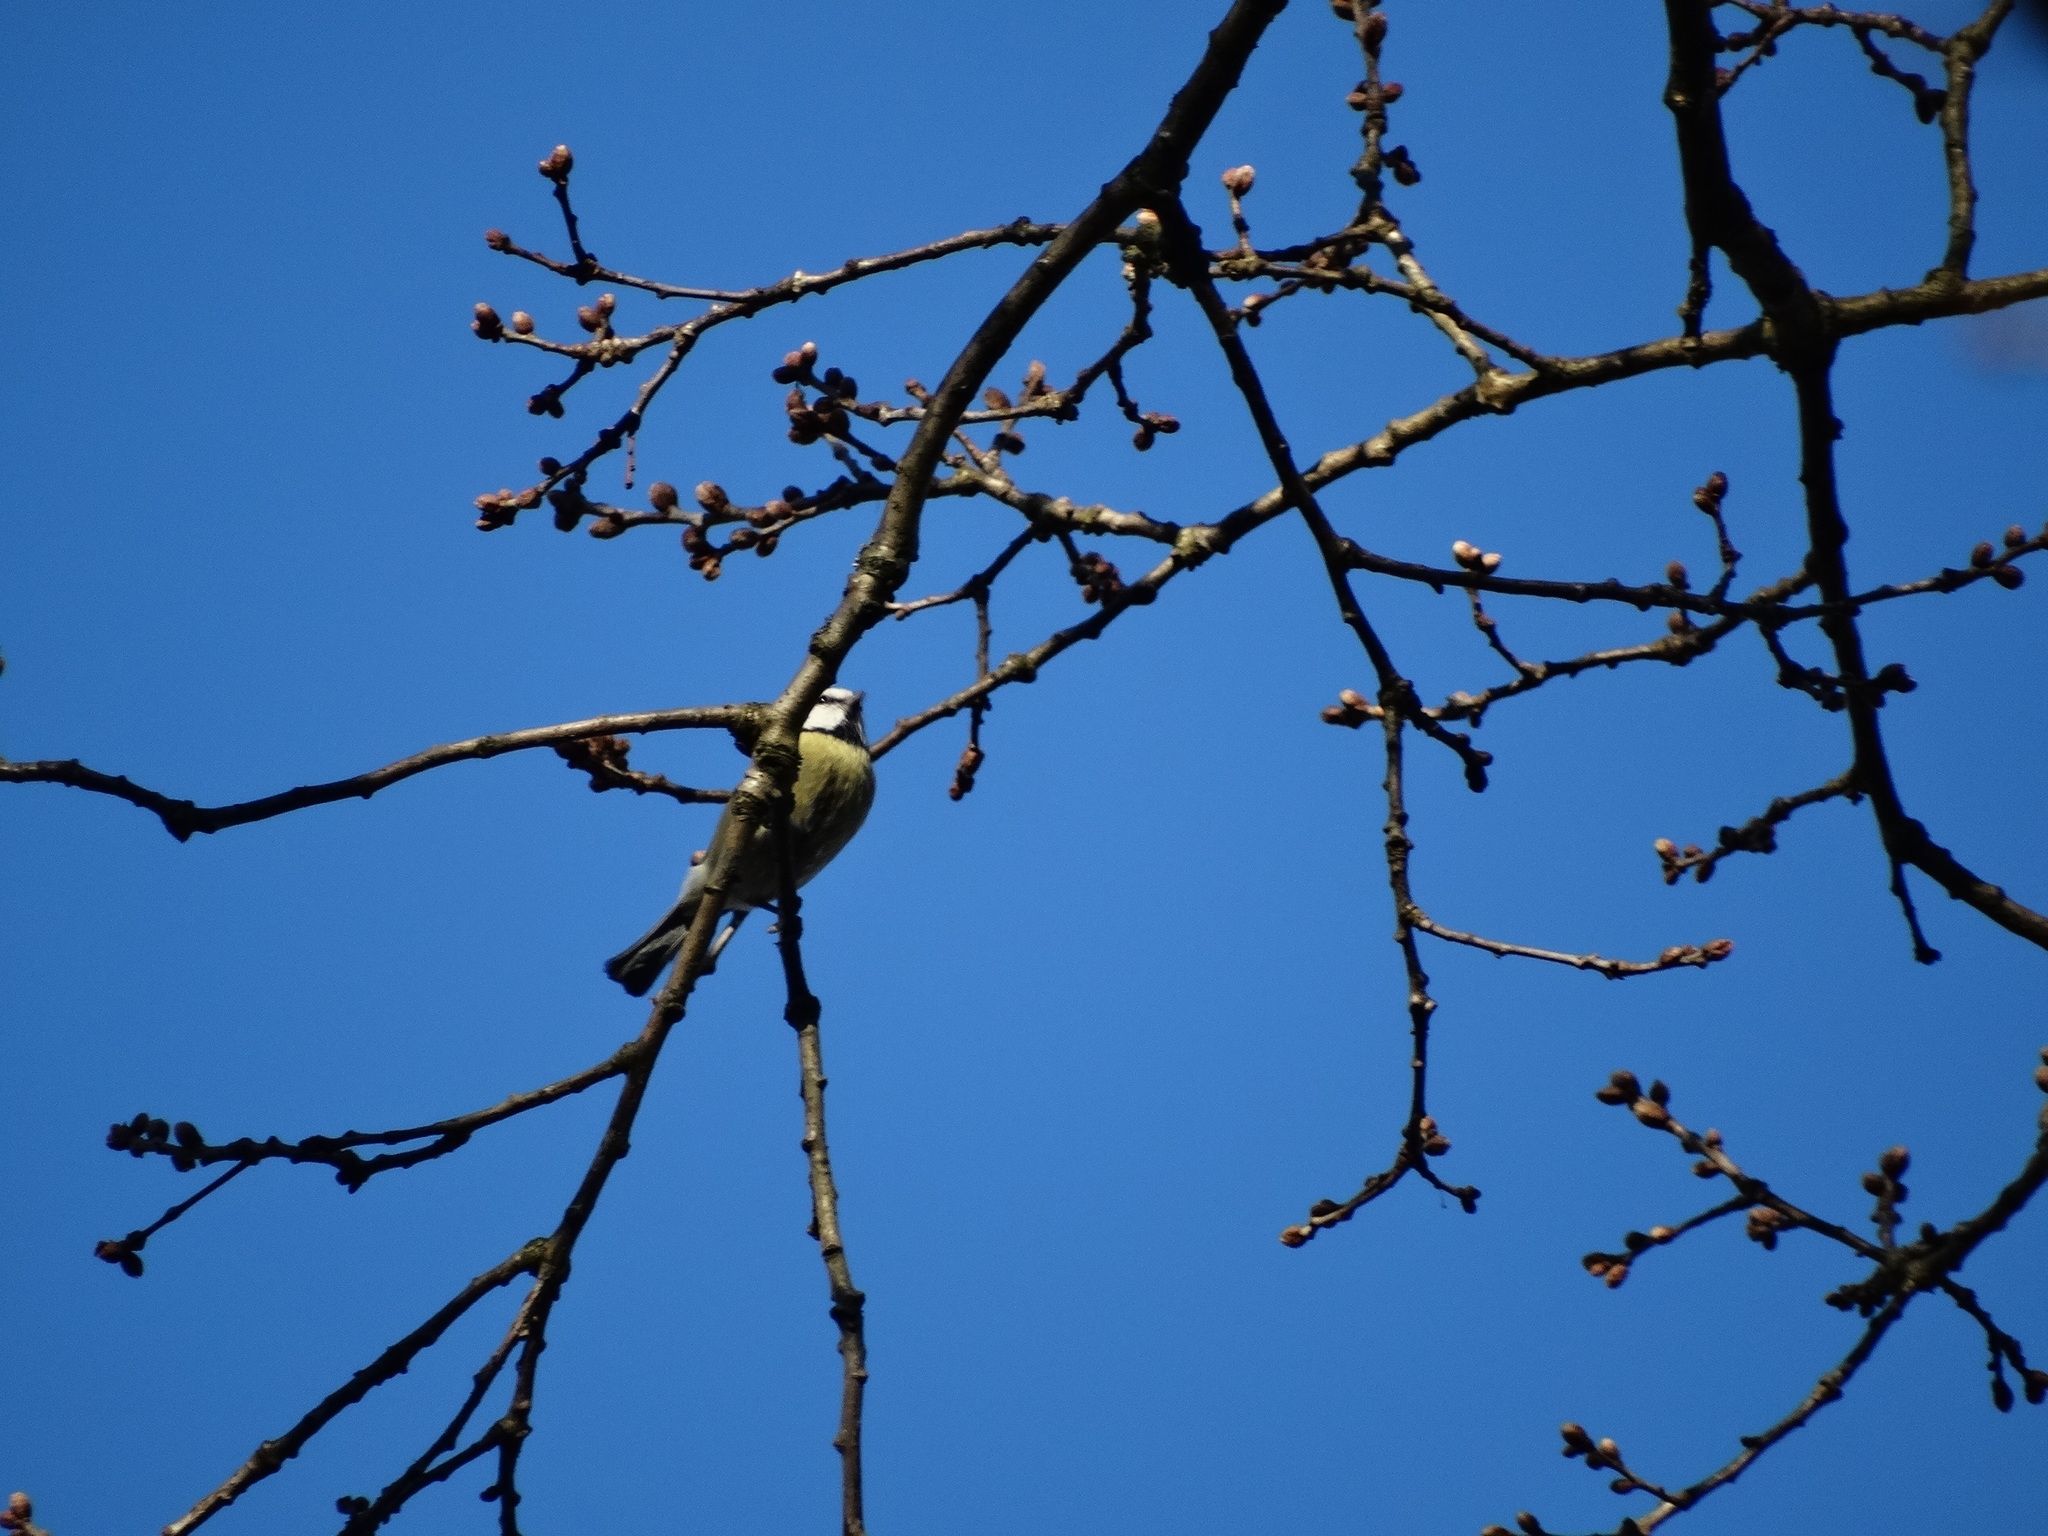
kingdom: Animalia
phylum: Chordata
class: Aves
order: Passeriformes
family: Paridae
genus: Cyanistes
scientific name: Cyanistes caeruleus
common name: Eurasian blue tit
